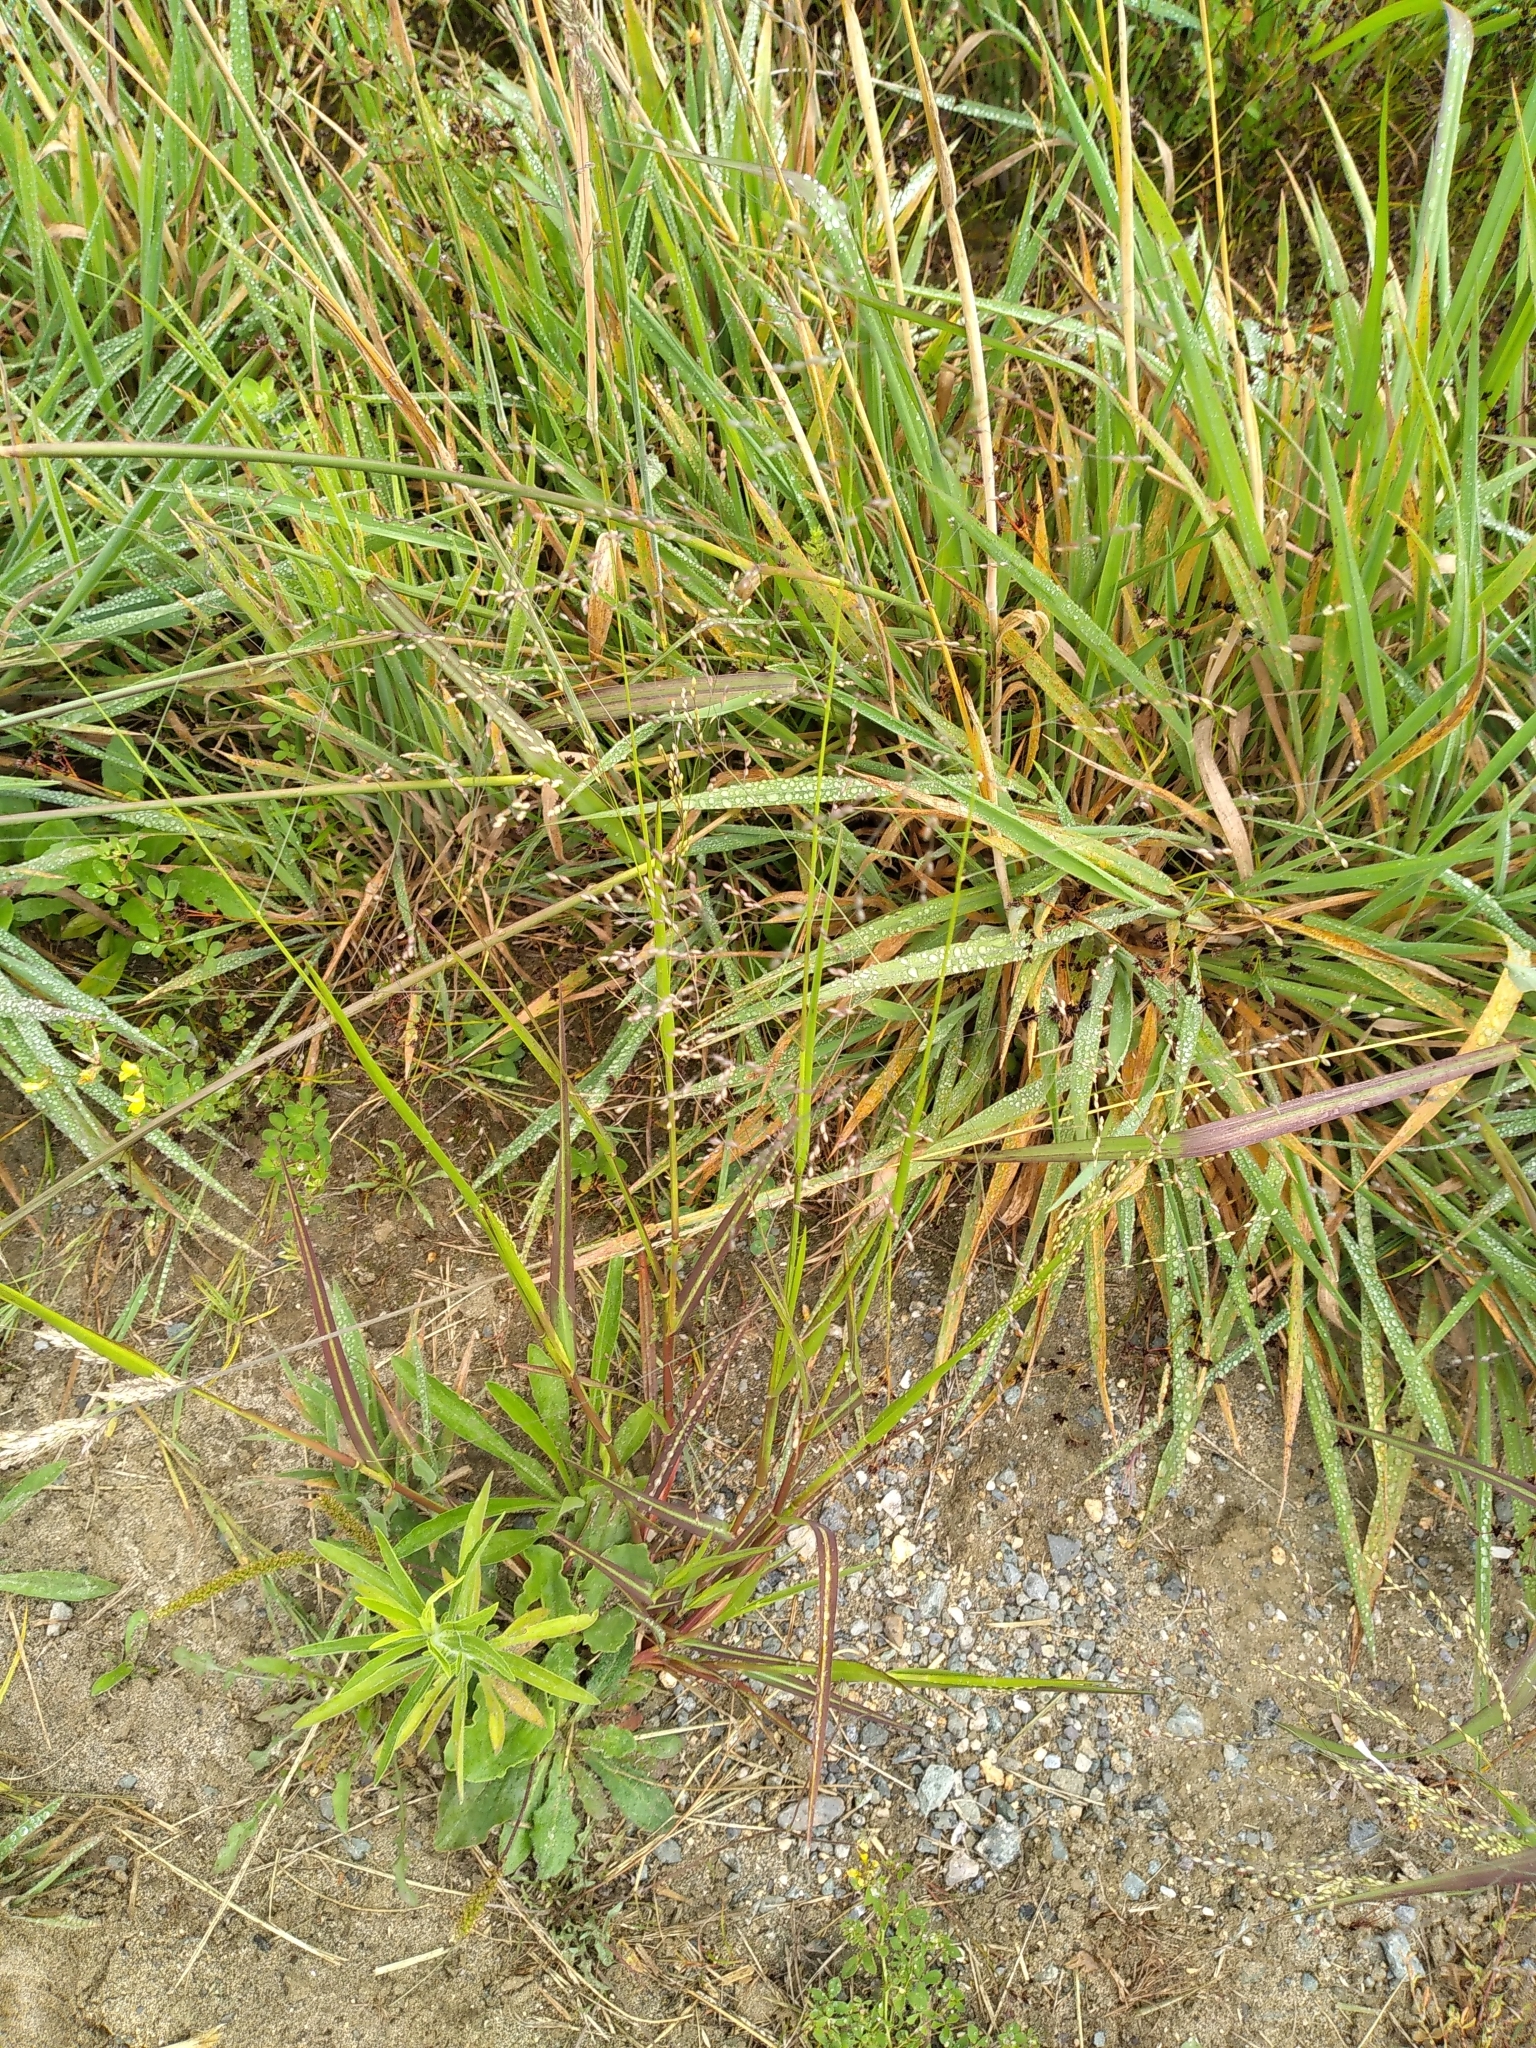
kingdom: Plantae
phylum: Tracheophyta
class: Liliopsida
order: Poales
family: Poaceae
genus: Panicum
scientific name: Panicum schinzii
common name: Sweet grass
